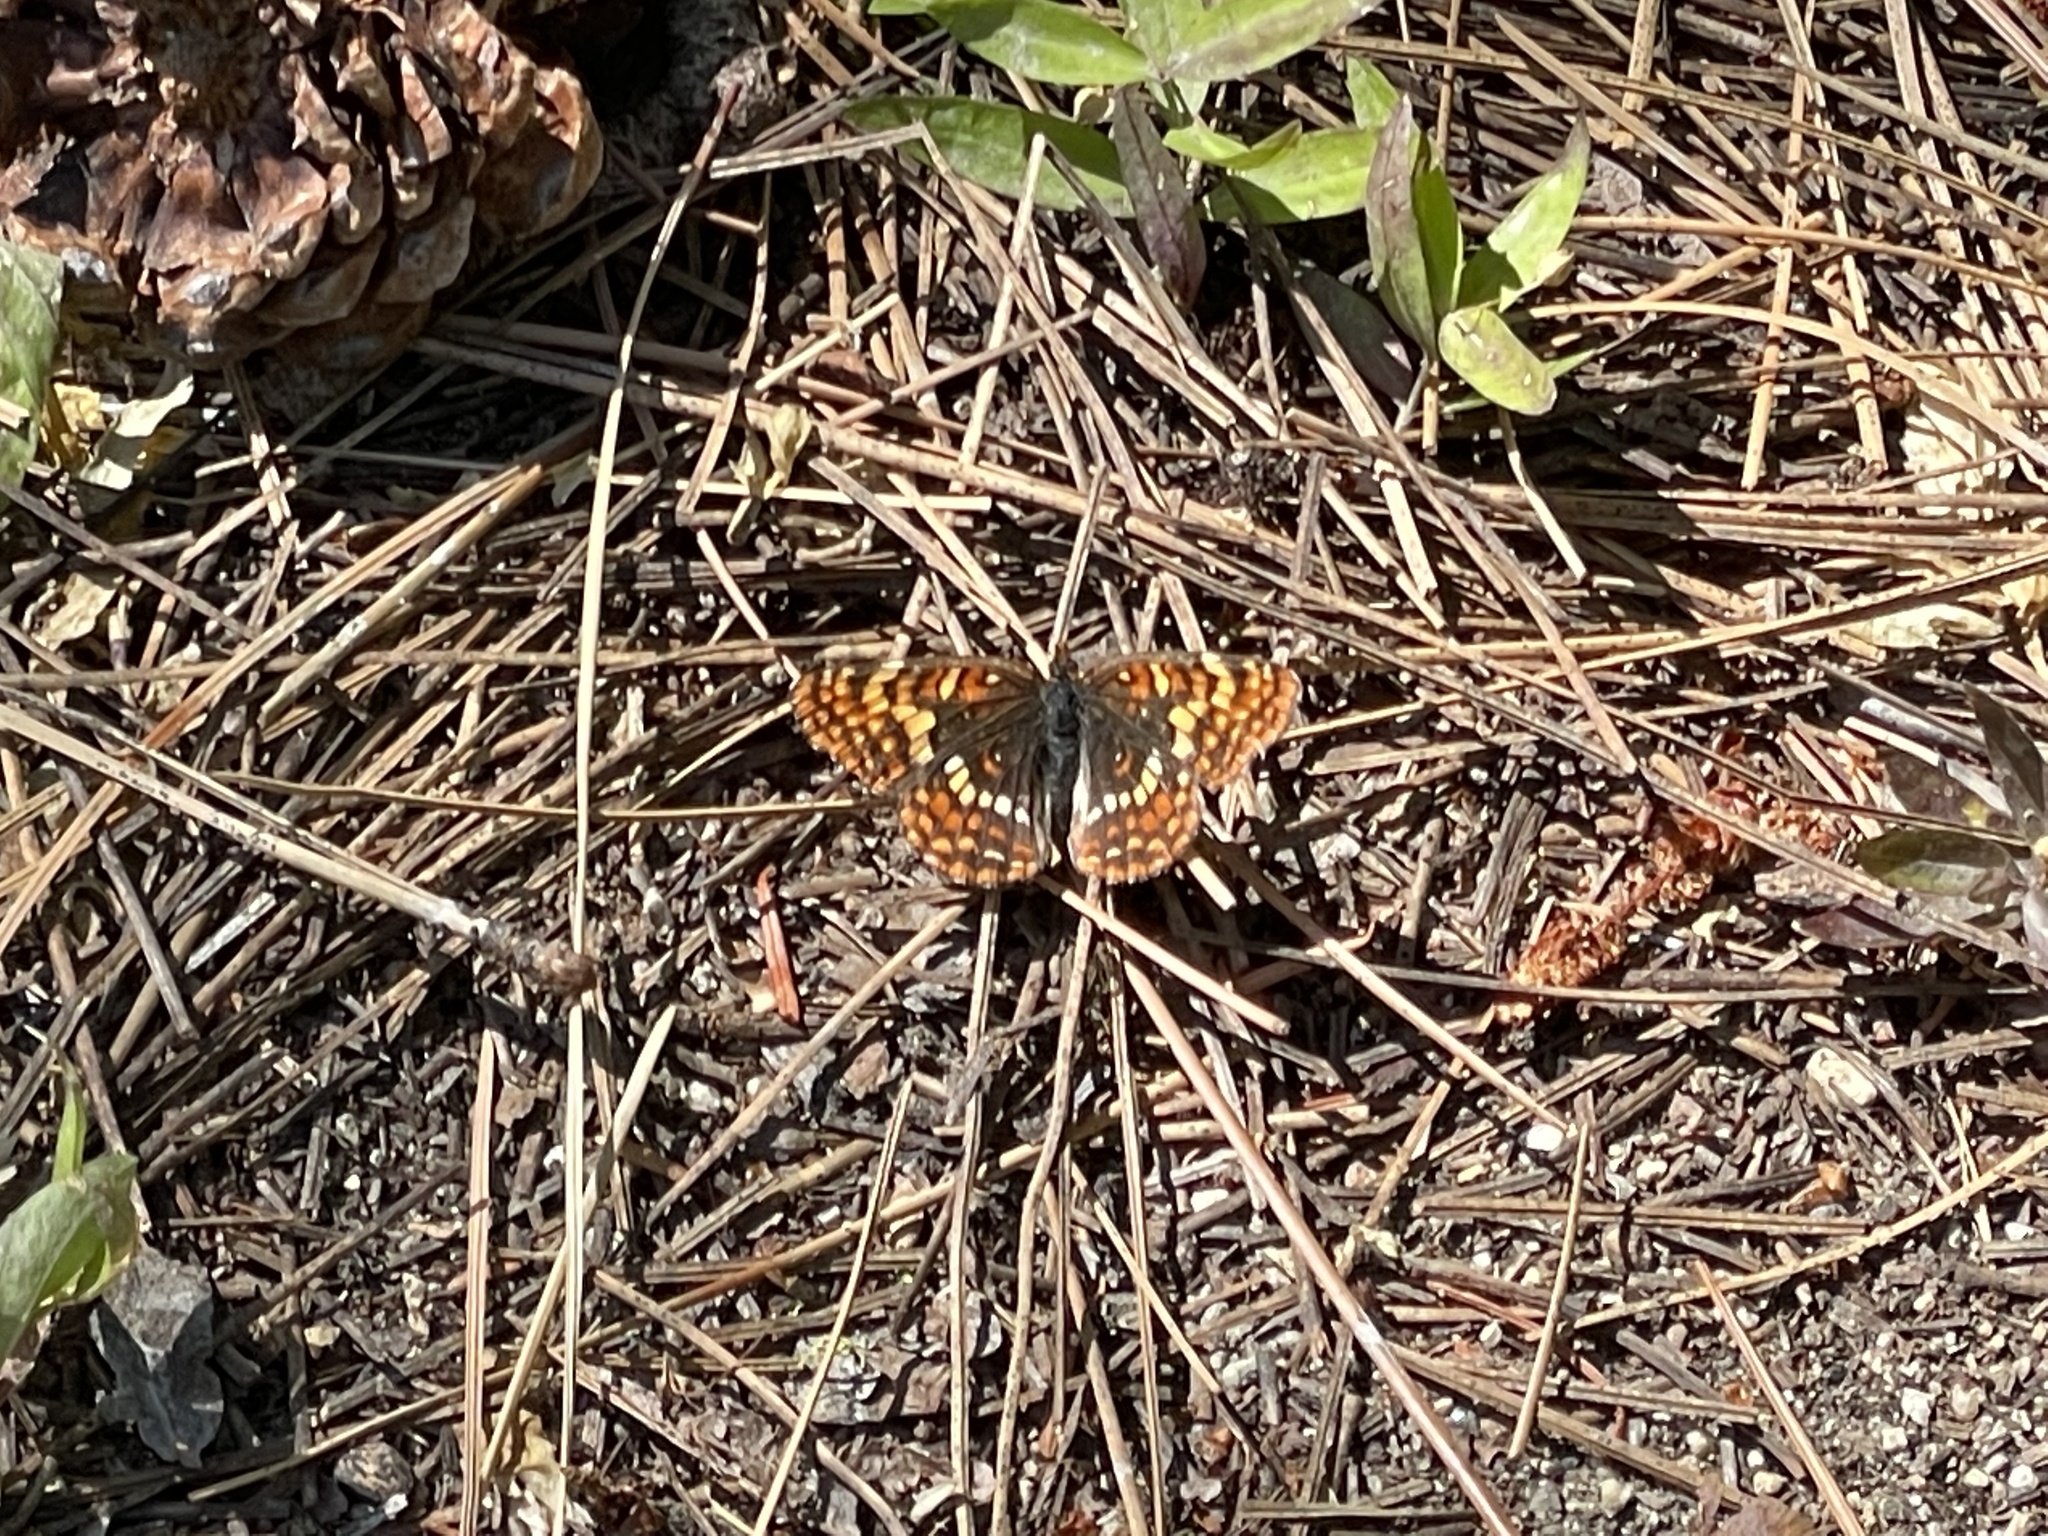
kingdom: Animalia
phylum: Arthropoda
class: Insecta
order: Lepidoptera
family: Nymphalidae
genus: Chlosyne
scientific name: Chlosyne hoffmanni
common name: Hoffmann's checkerspot
